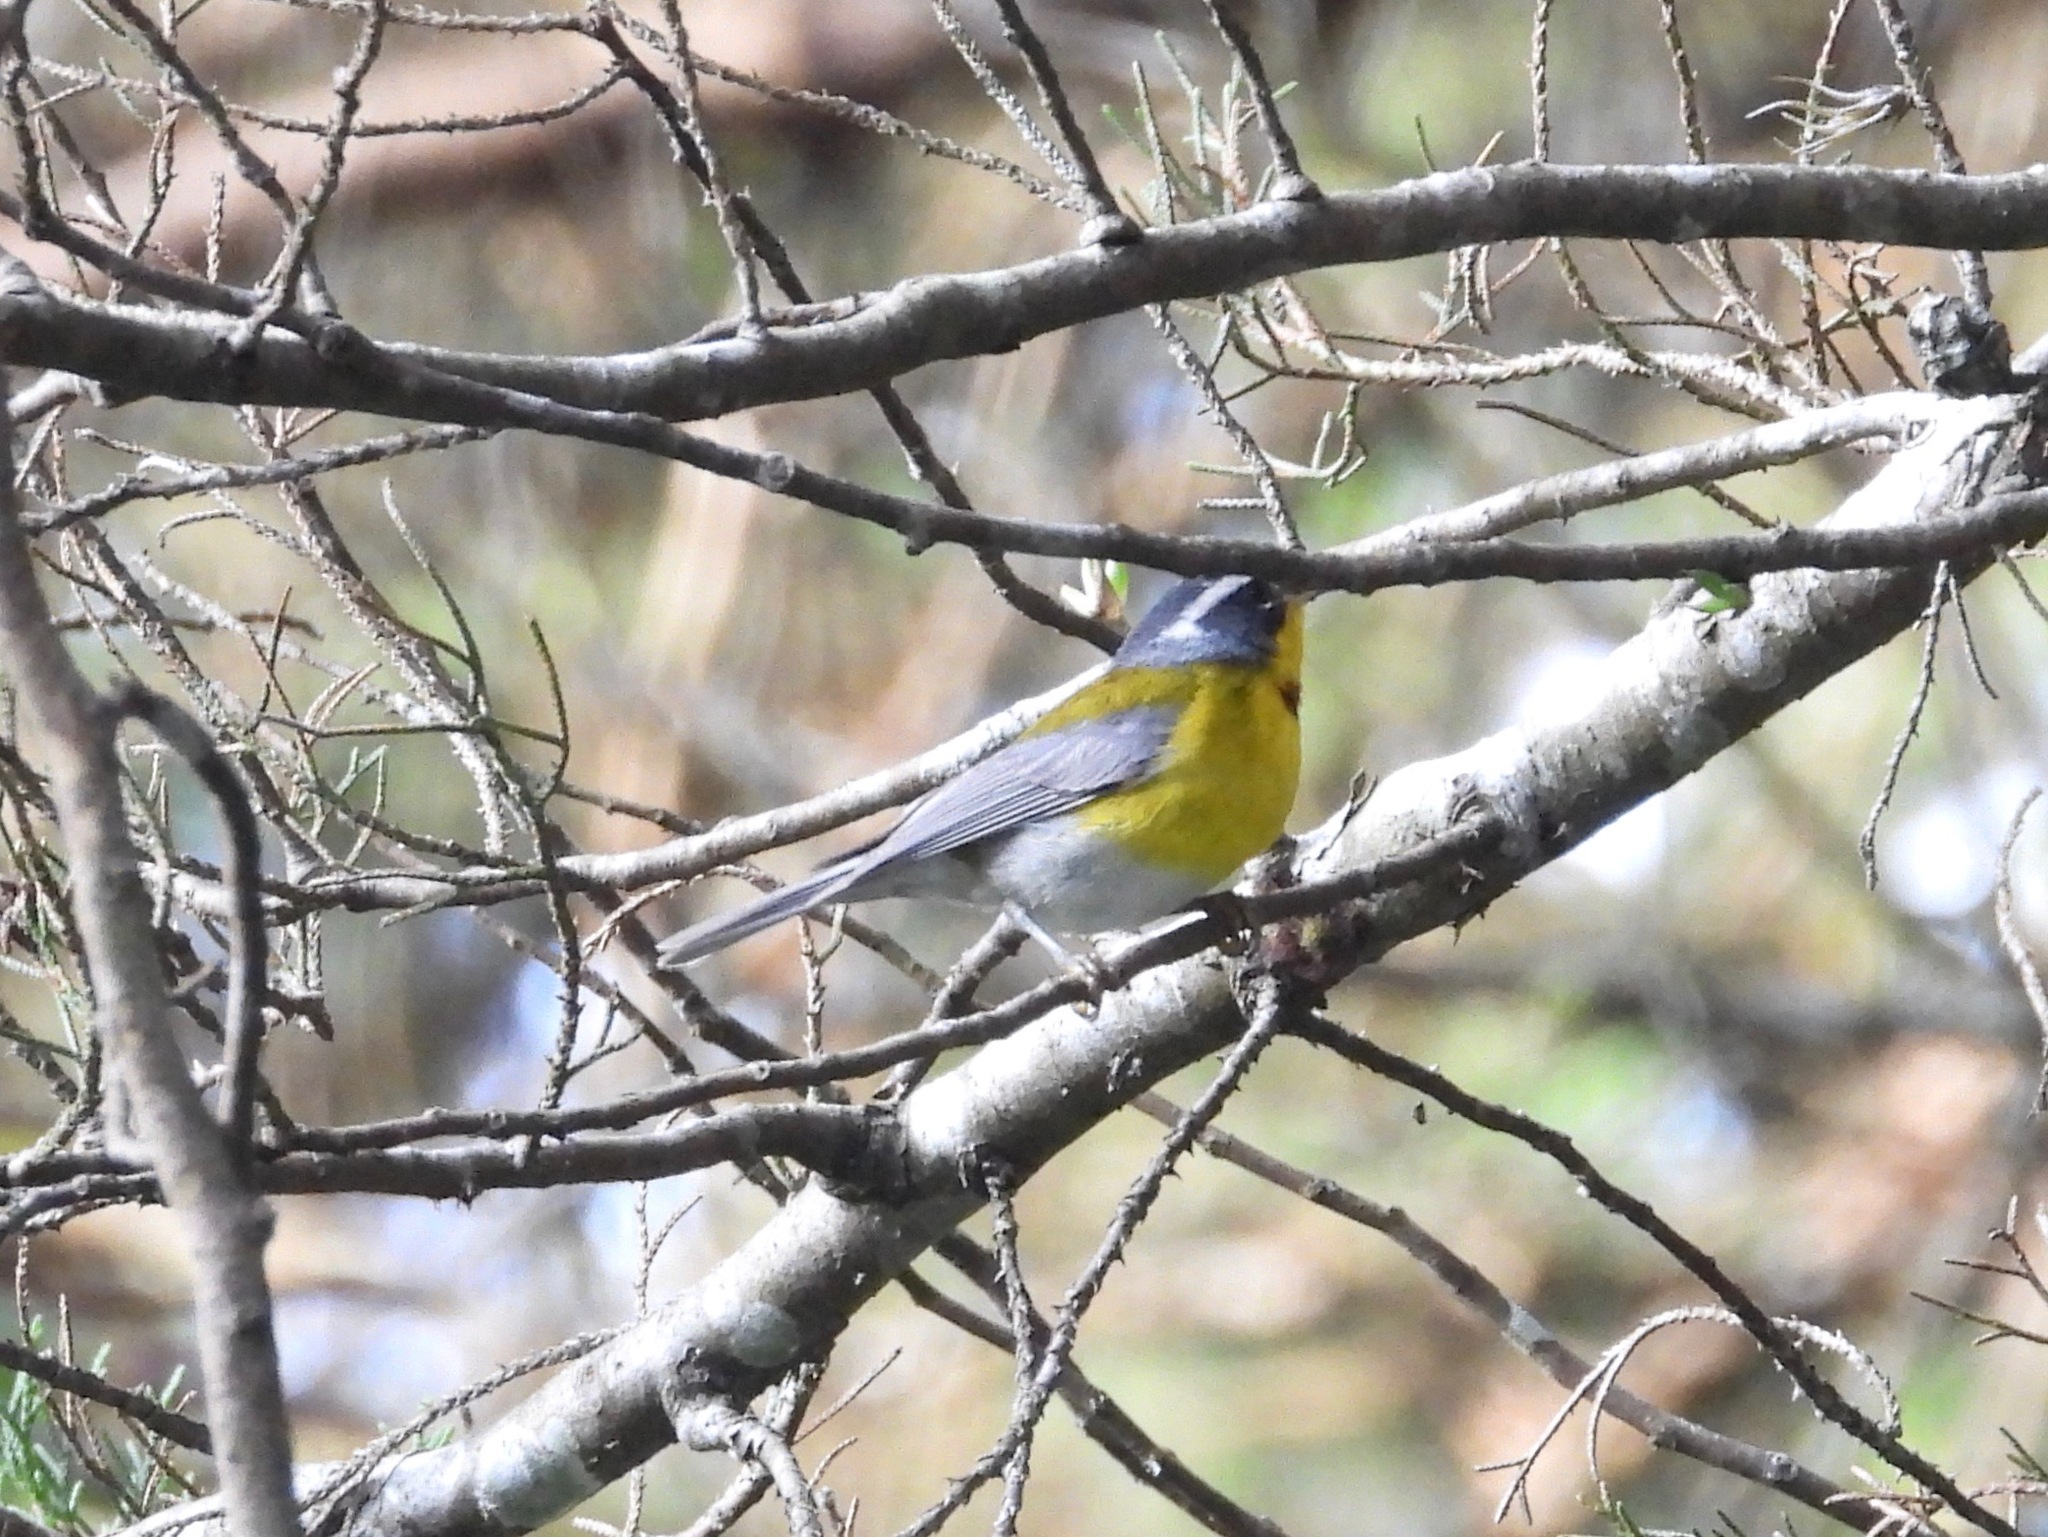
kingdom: Animalia
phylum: Chordata
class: Aves
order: Passeriformes
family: Parulidae
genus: Oreothlypis
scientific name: Oreothlypis superciliosa
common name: Crescent-chested warbler
